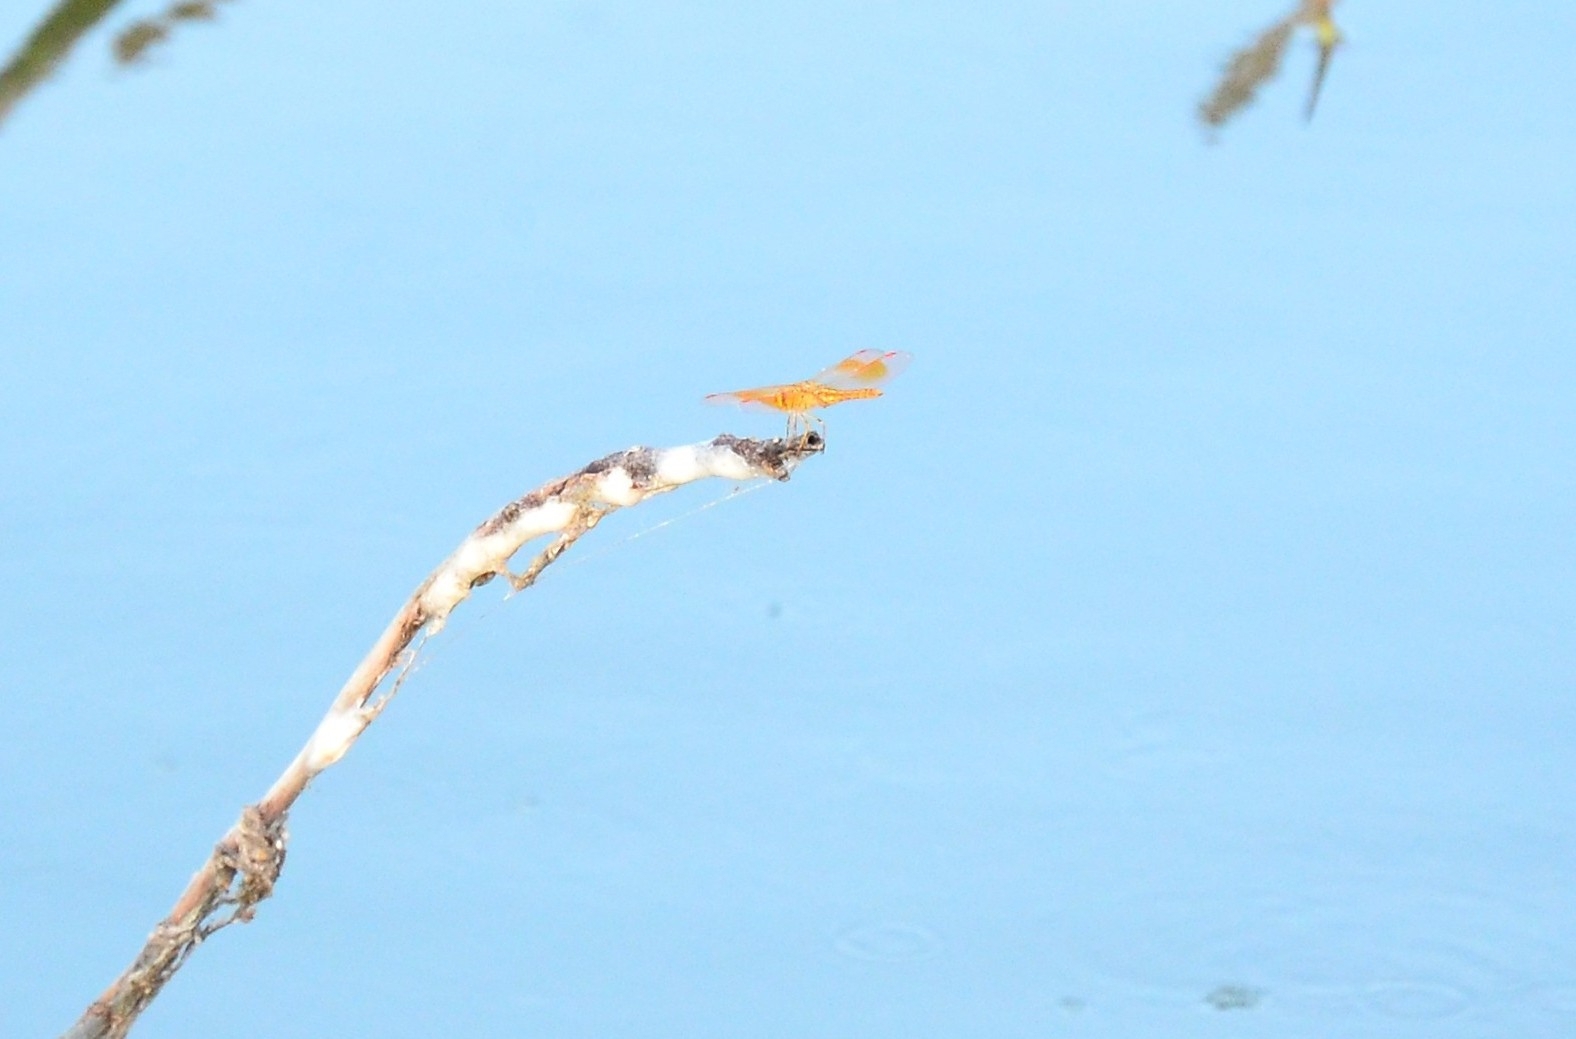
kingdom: Animalia
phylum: Arthropoda
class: Insecta
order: Odonata
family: Libellulidae
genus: Brachythemis
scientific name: Brachythemis contaminata
